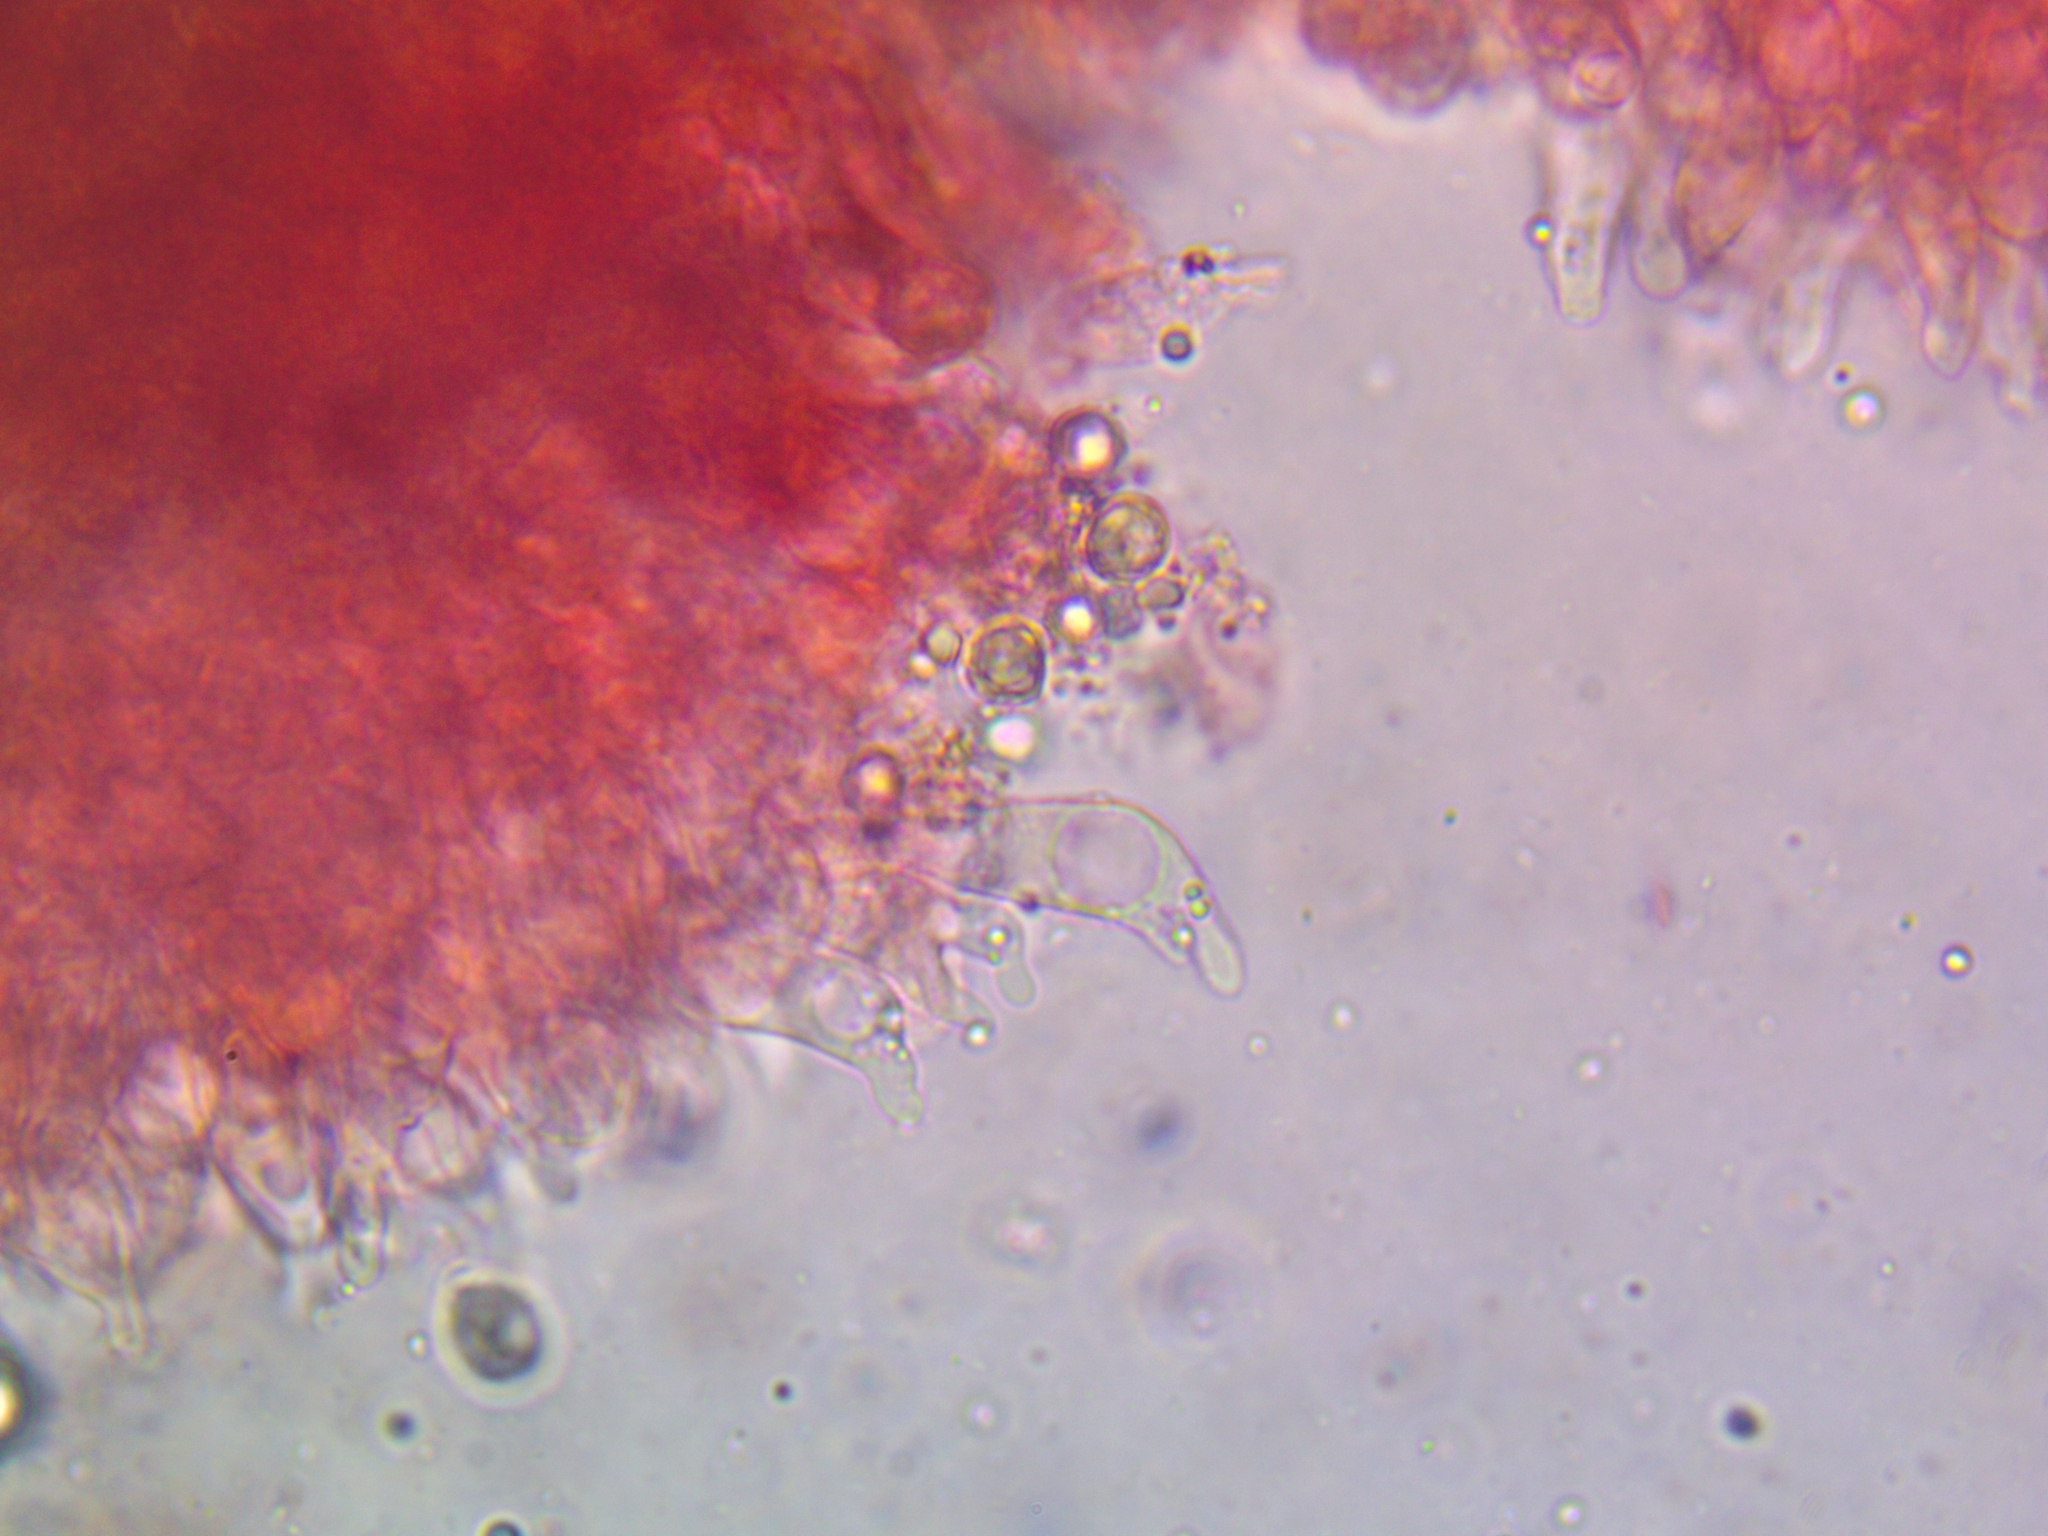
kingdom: Fungi
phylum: Basidiomycota
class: Agaricomycetes
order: Agaricales
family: Mycenaceae
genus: Mycena
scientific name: Mycena polygramma
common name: Grooved bonnet
